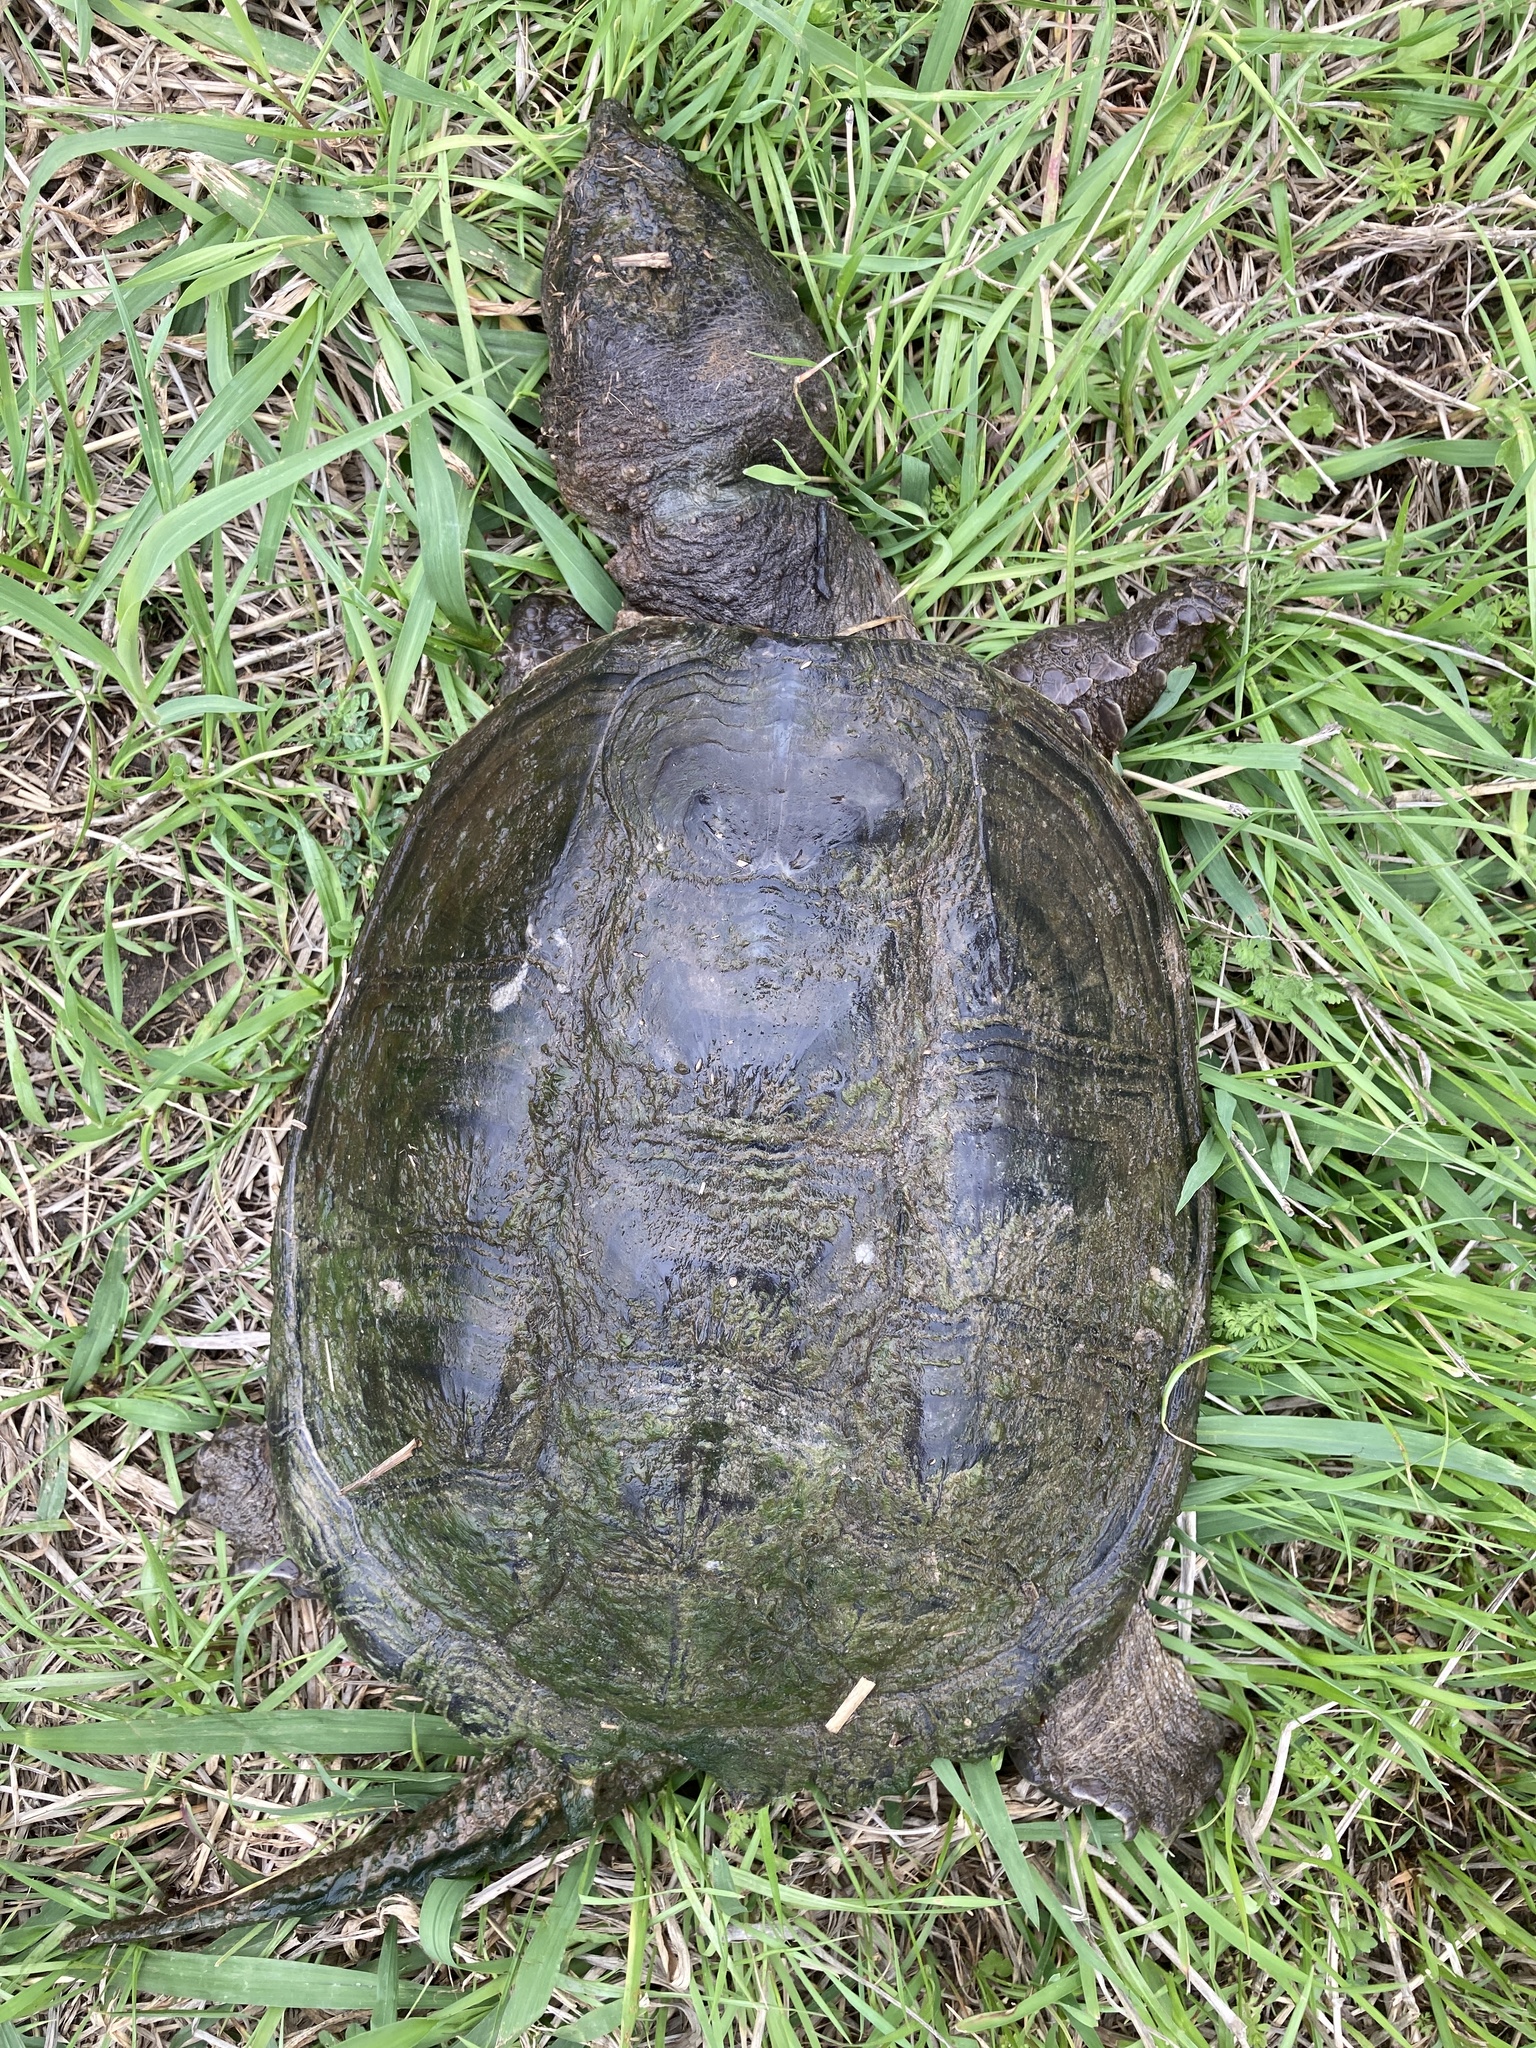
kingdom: Animalia
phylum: Chordata
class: Testudines
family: Chelydridae
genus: Chelydra
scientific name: Chelydra serpentina
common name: Common snapping turtle
